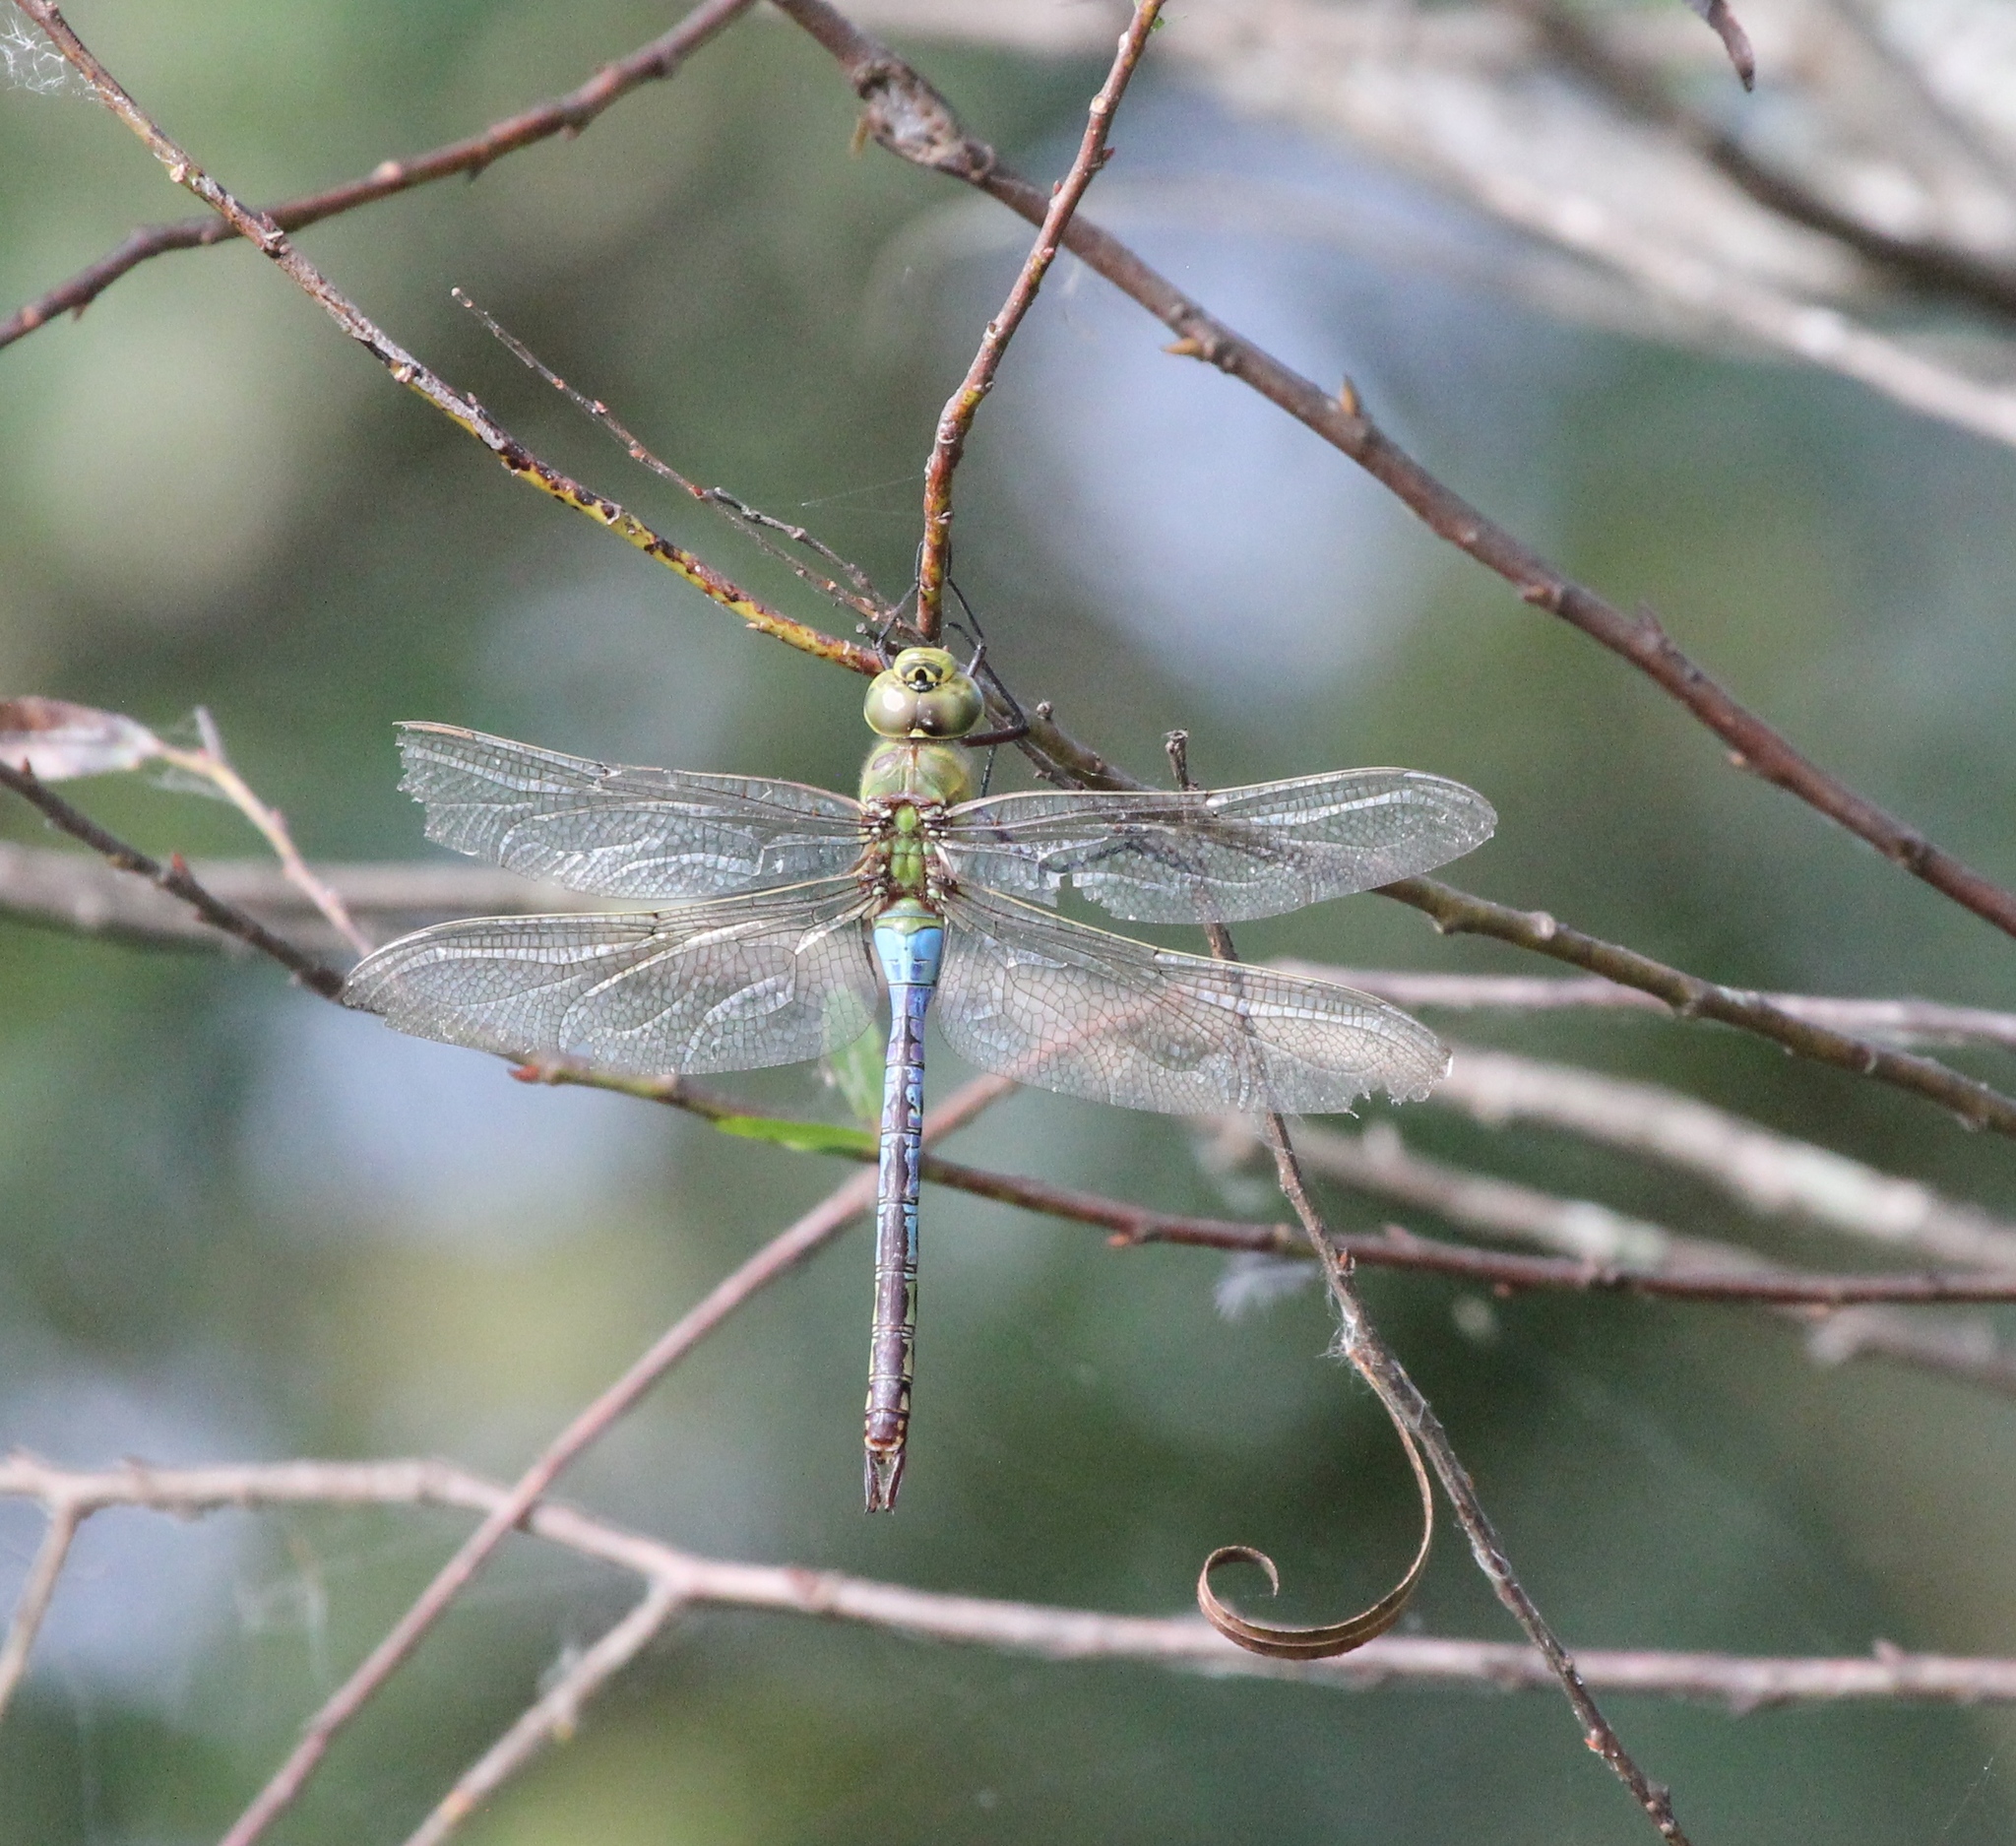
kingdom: Animalia
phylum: Arthropoda
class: Insecta
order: Odonata
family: Aeshnidae
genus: Anax
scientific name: Anax junius
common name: Common green darner
